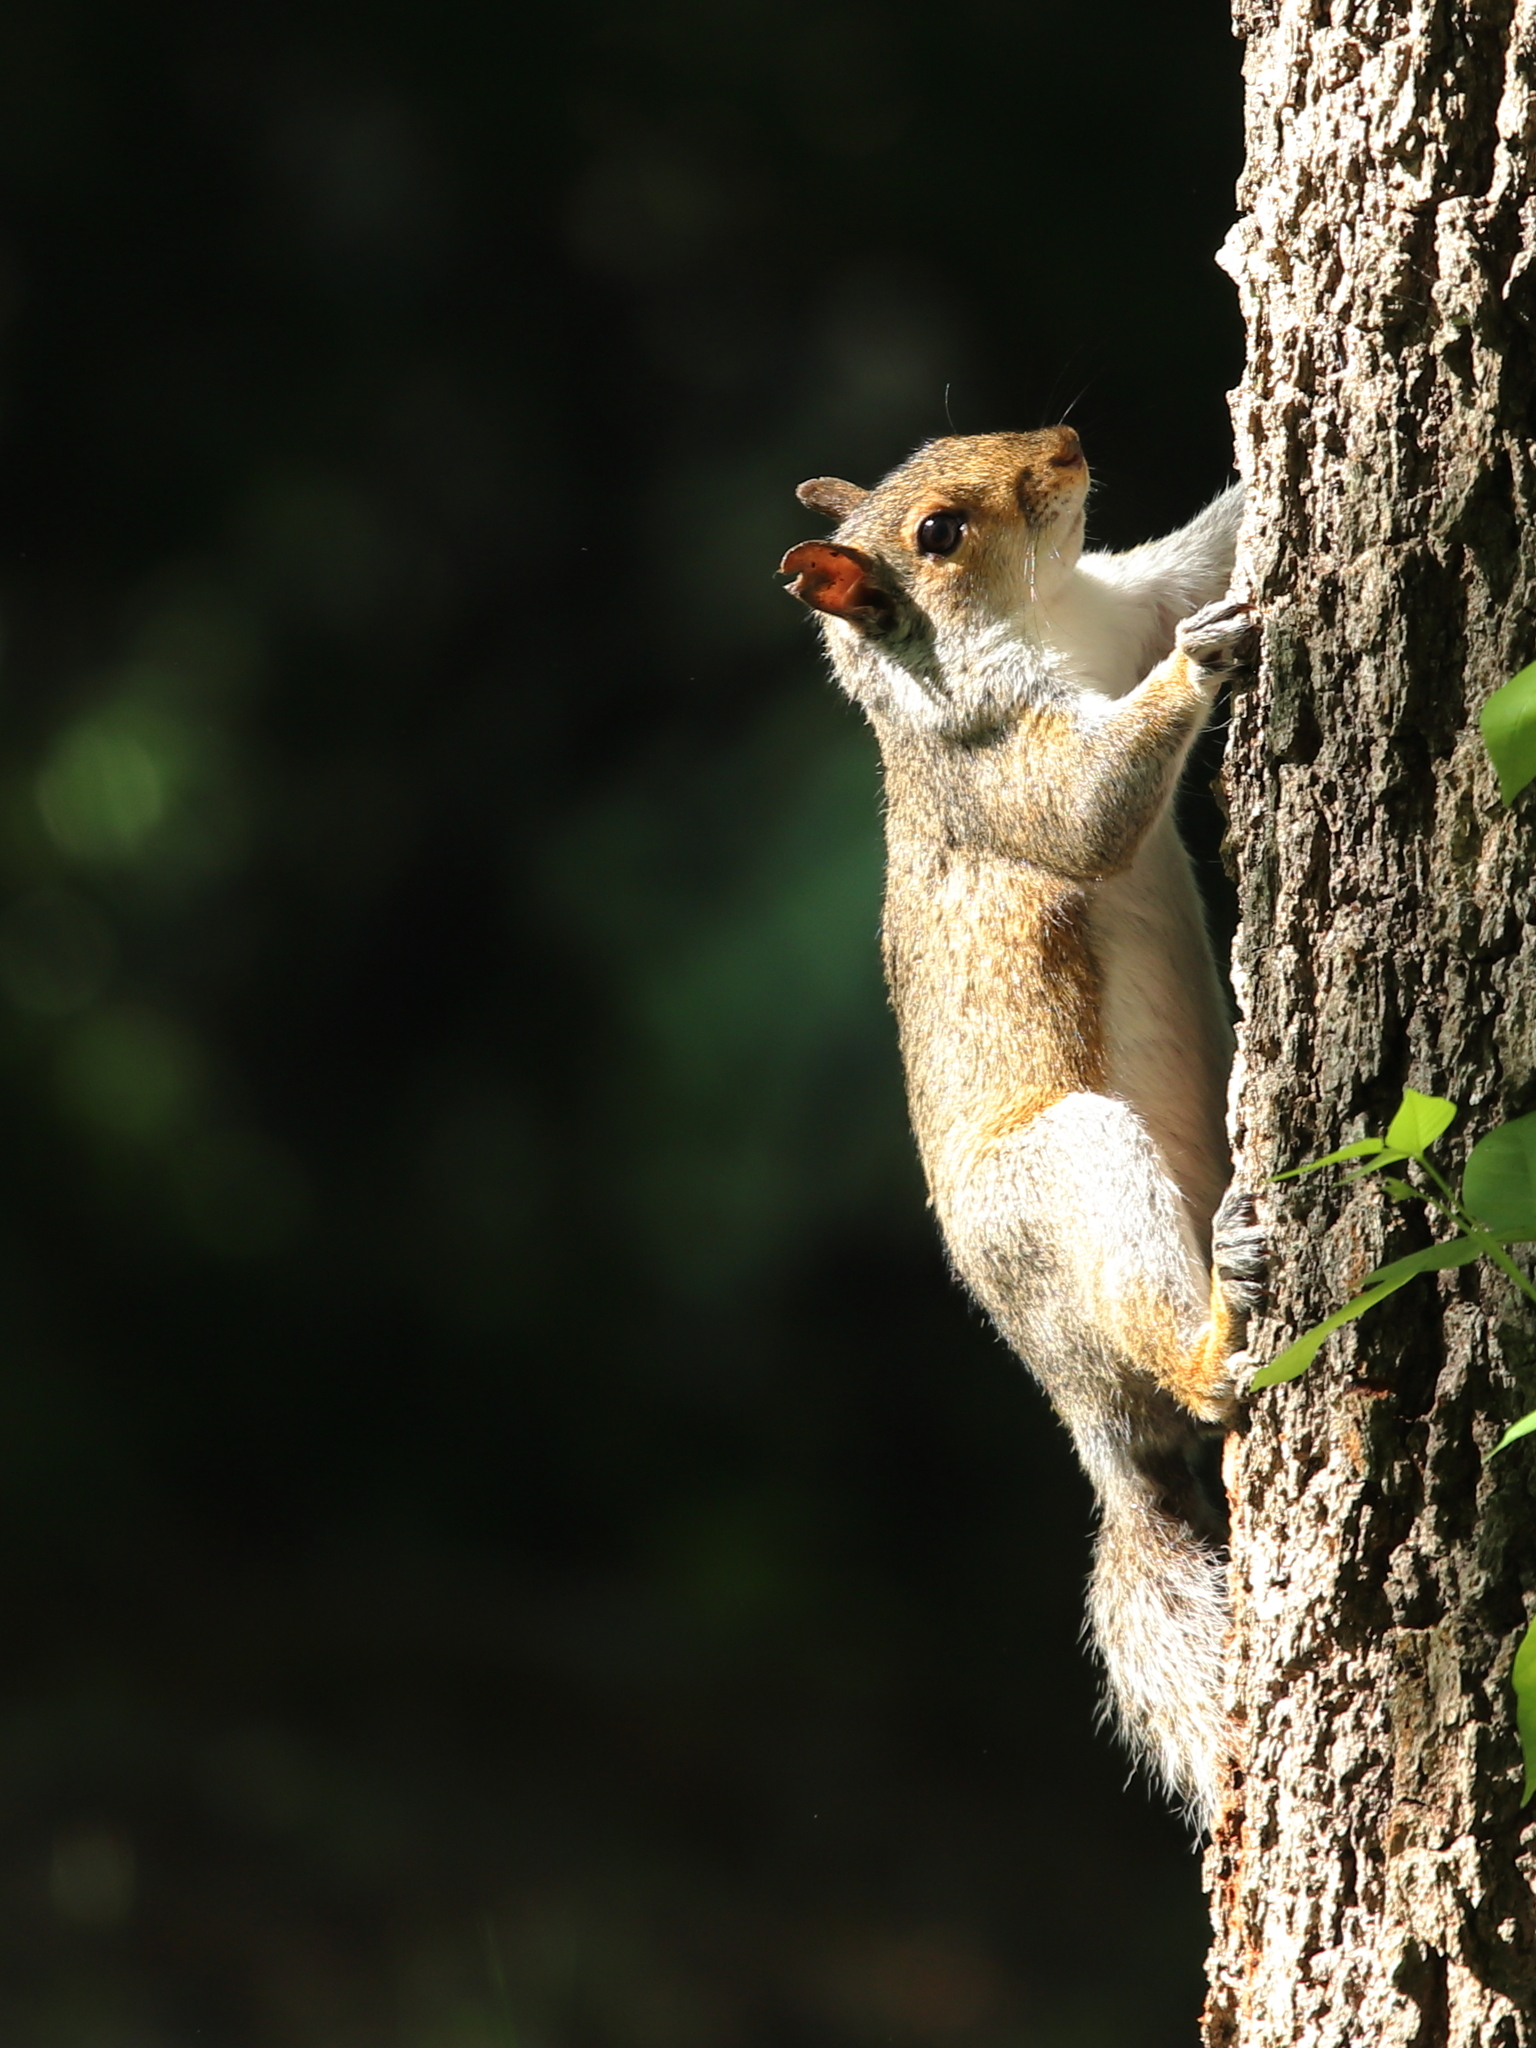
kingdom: Animalia
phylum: Chordata
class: Mammalia
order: Rodentia
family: Sciuridae
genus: Sciurus
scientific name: Sciurus carolinensis
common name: Eastern gray squirrel
